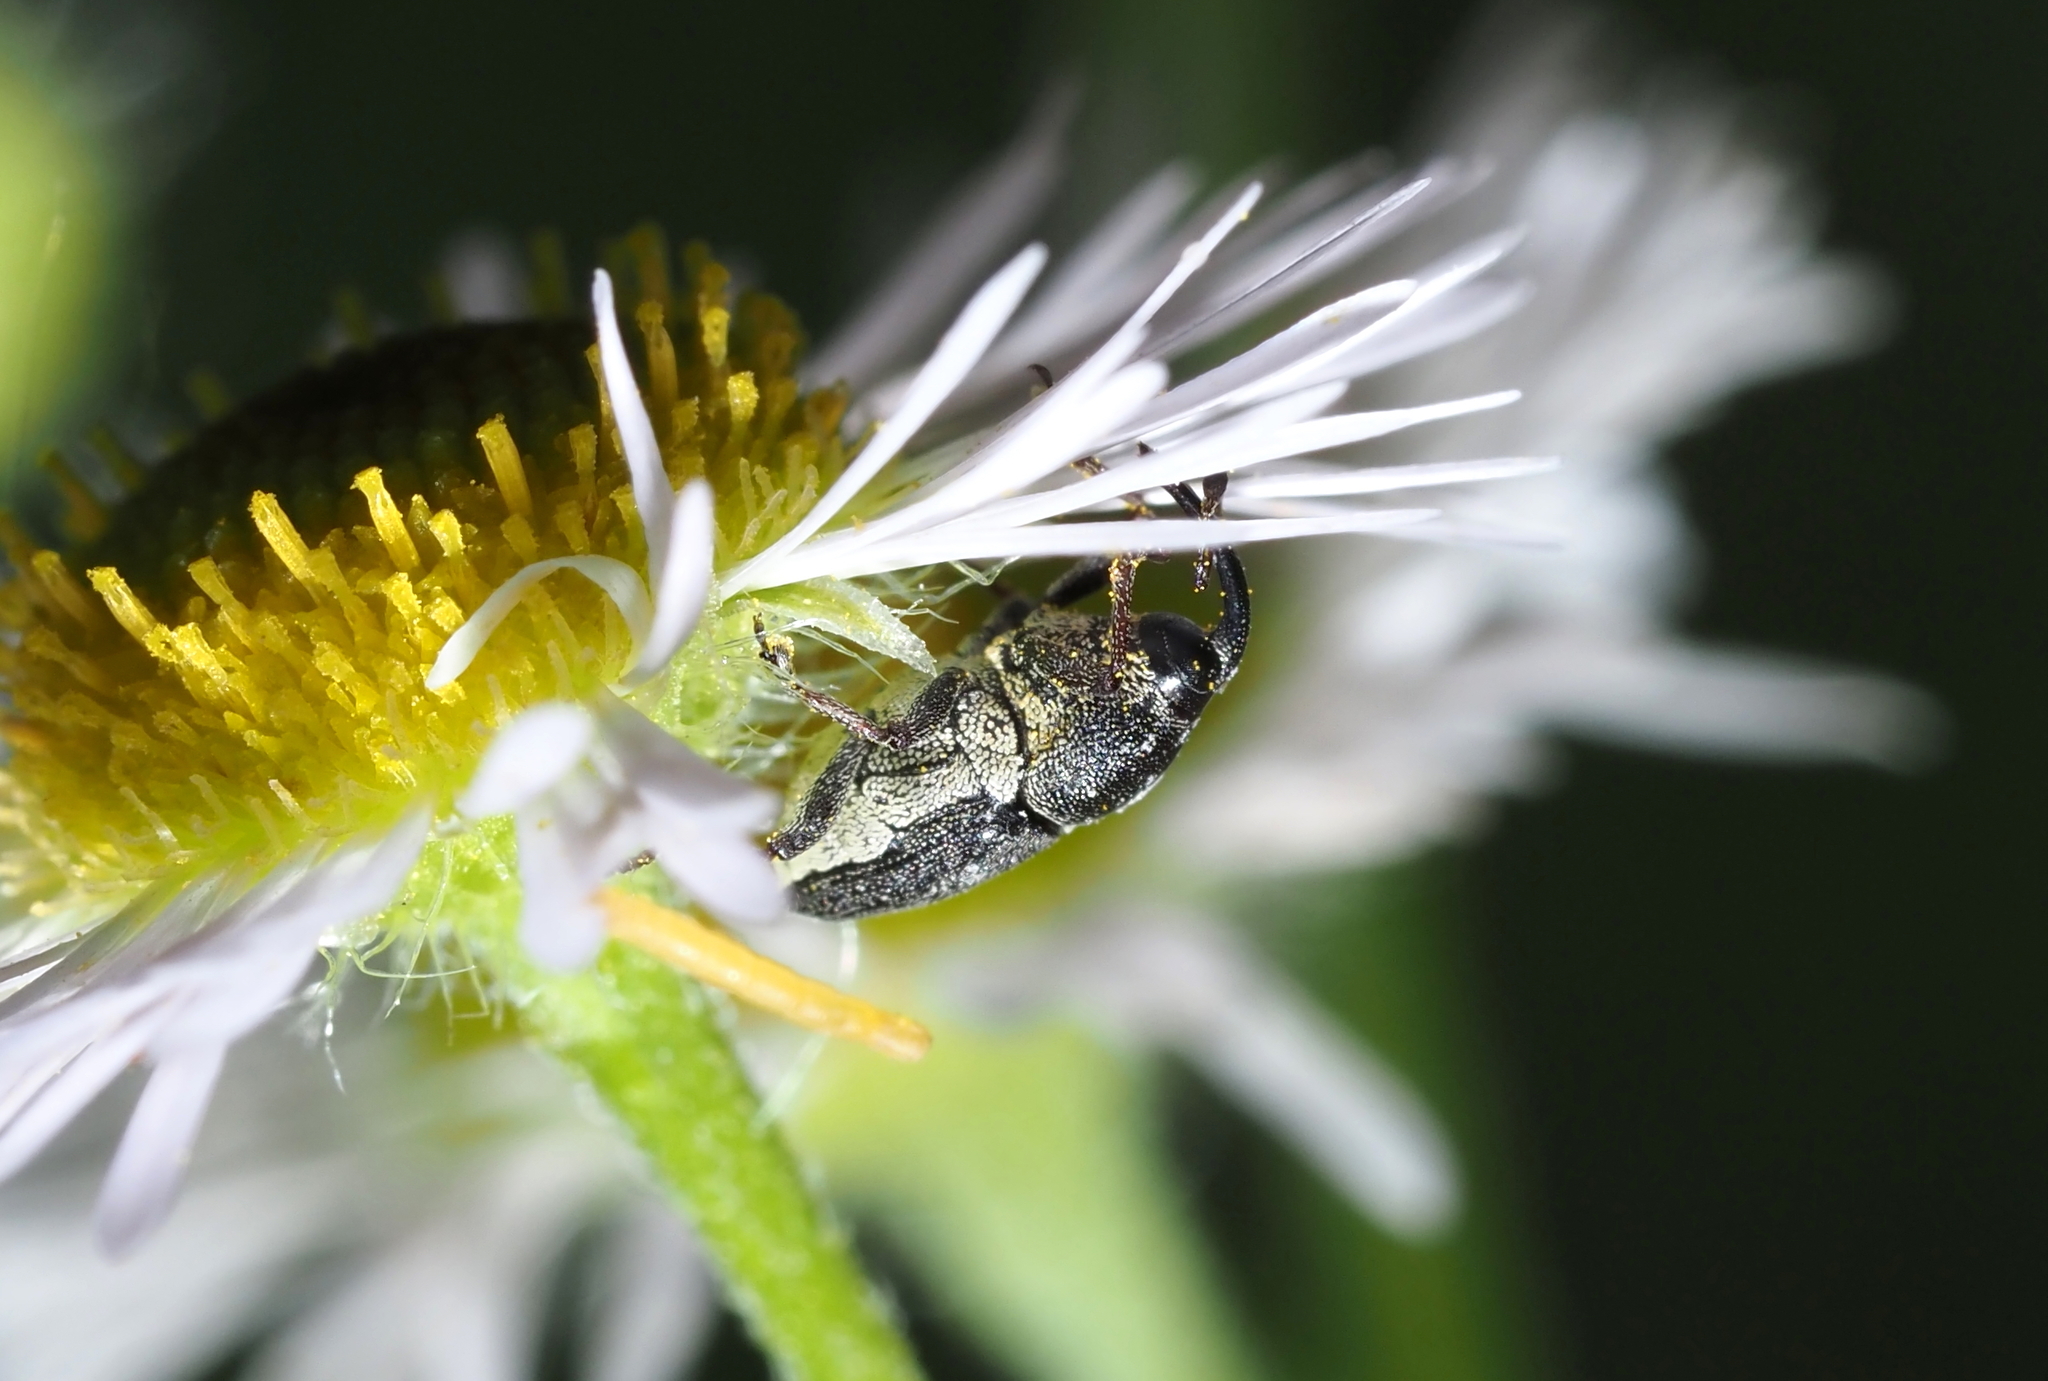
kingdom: Animalia
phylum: Arthropoda
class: Insecta
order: Coleoptera
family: Curculionidae
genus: Odontocorynus
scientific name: Odontocorynus salebrosus
